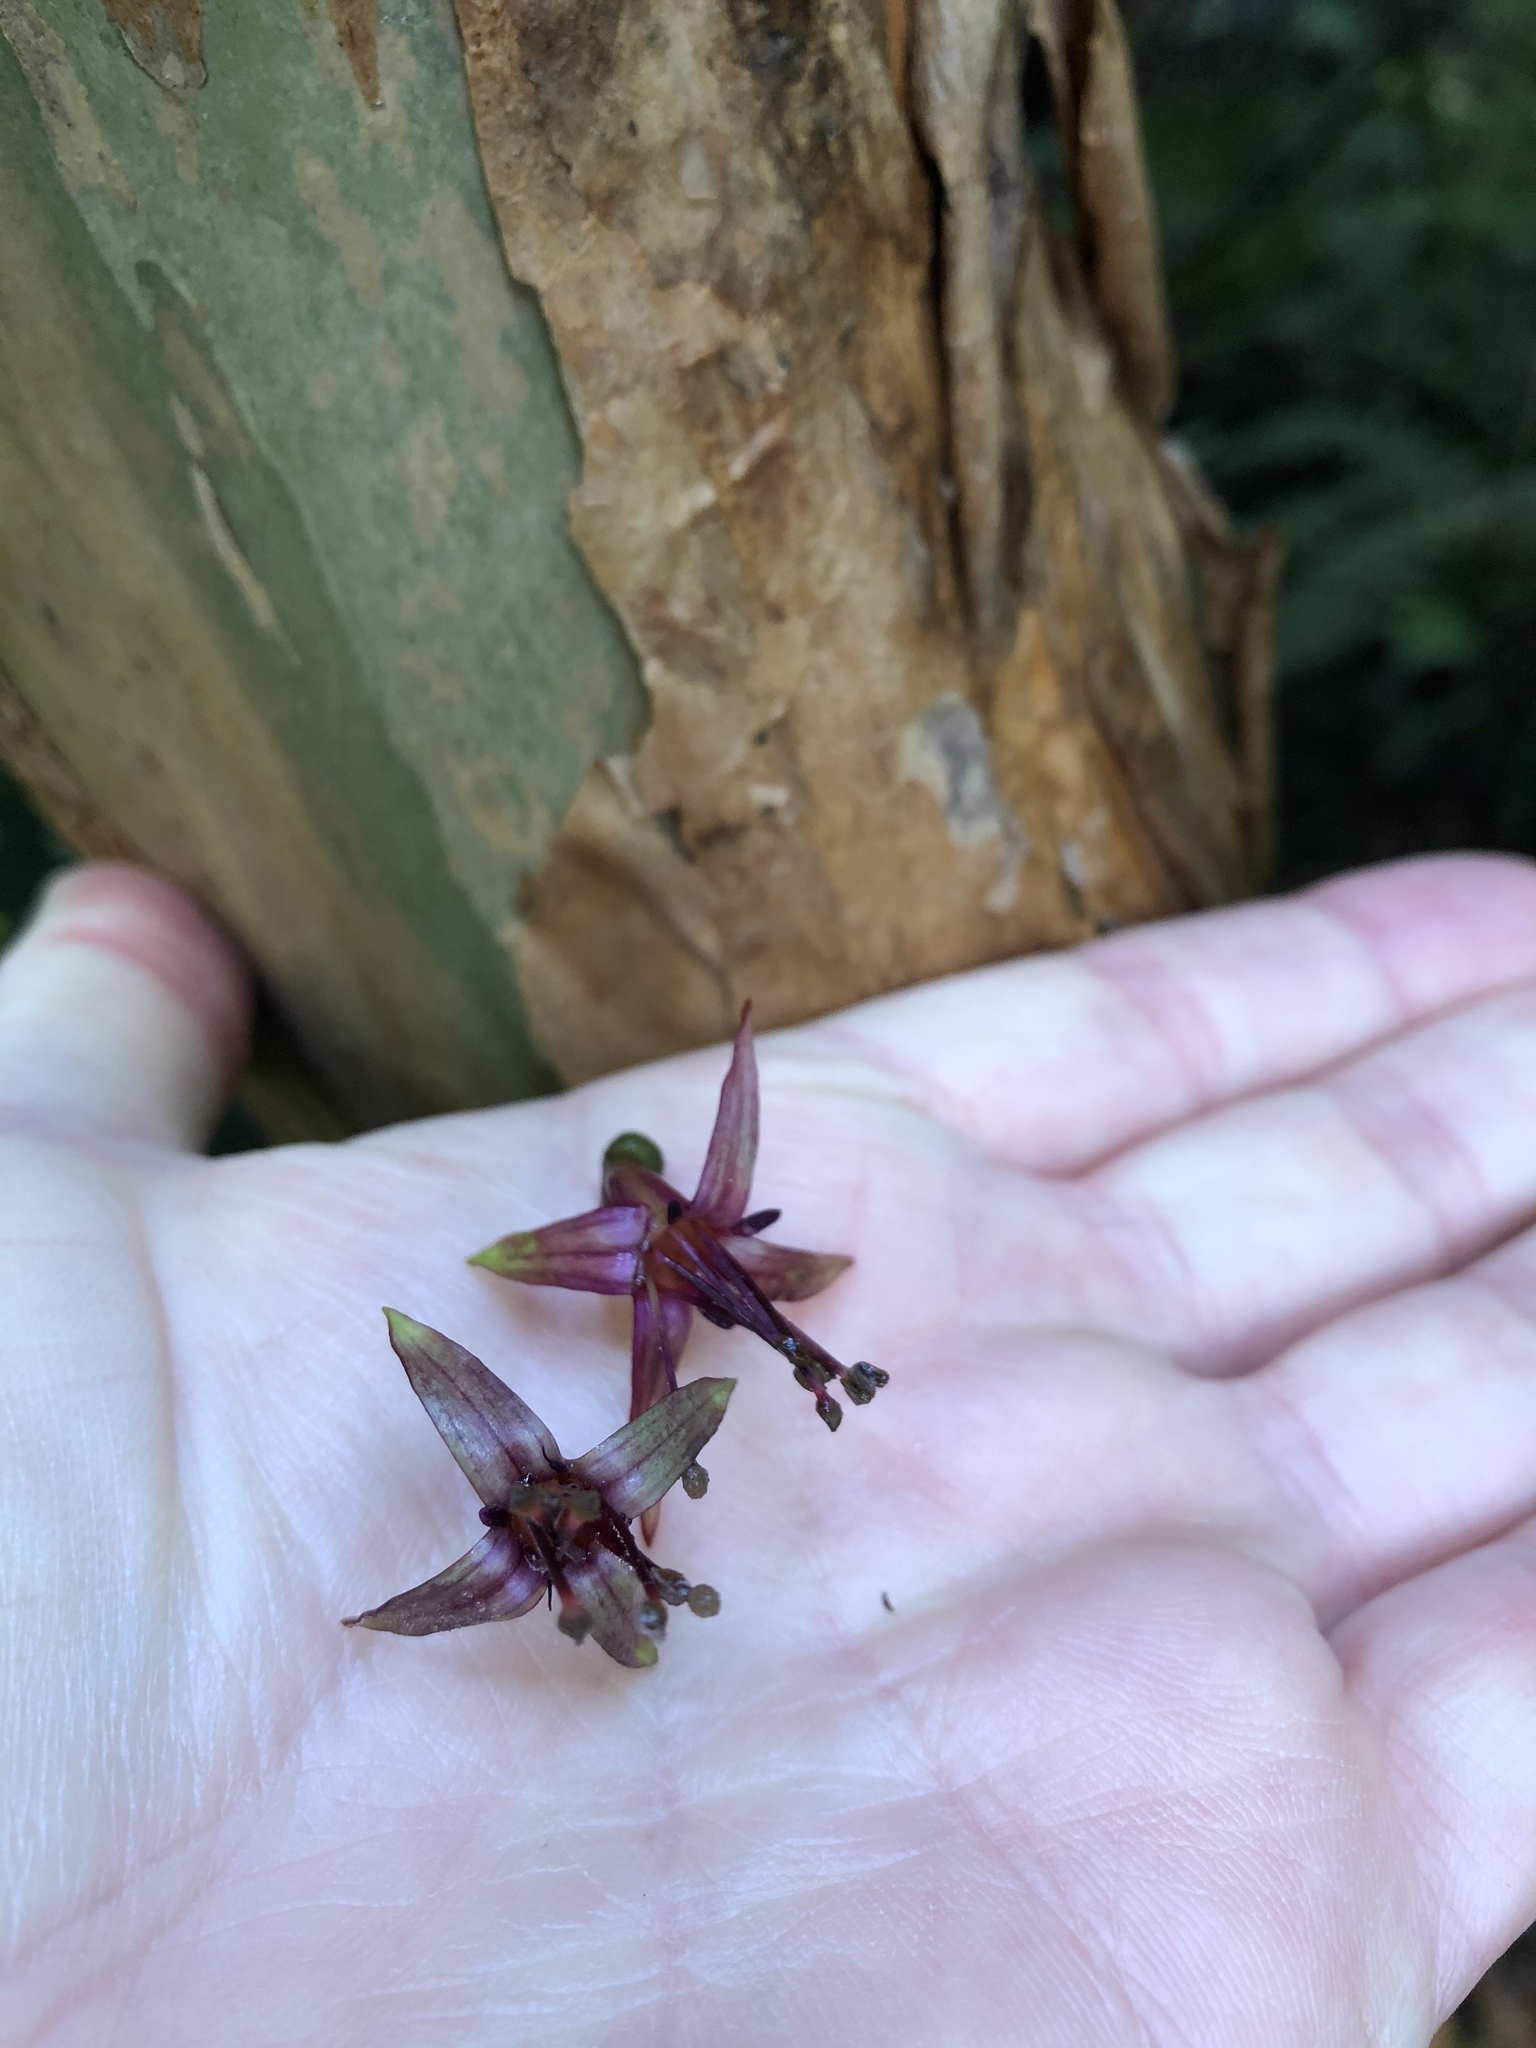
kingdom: Plantae
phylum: Tracheophyta
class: Magnoliopsida
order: Myrtales
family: Onagraceae
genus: Fuchsia
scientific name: Fuchsia excorticata
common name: Tree fuchsia
